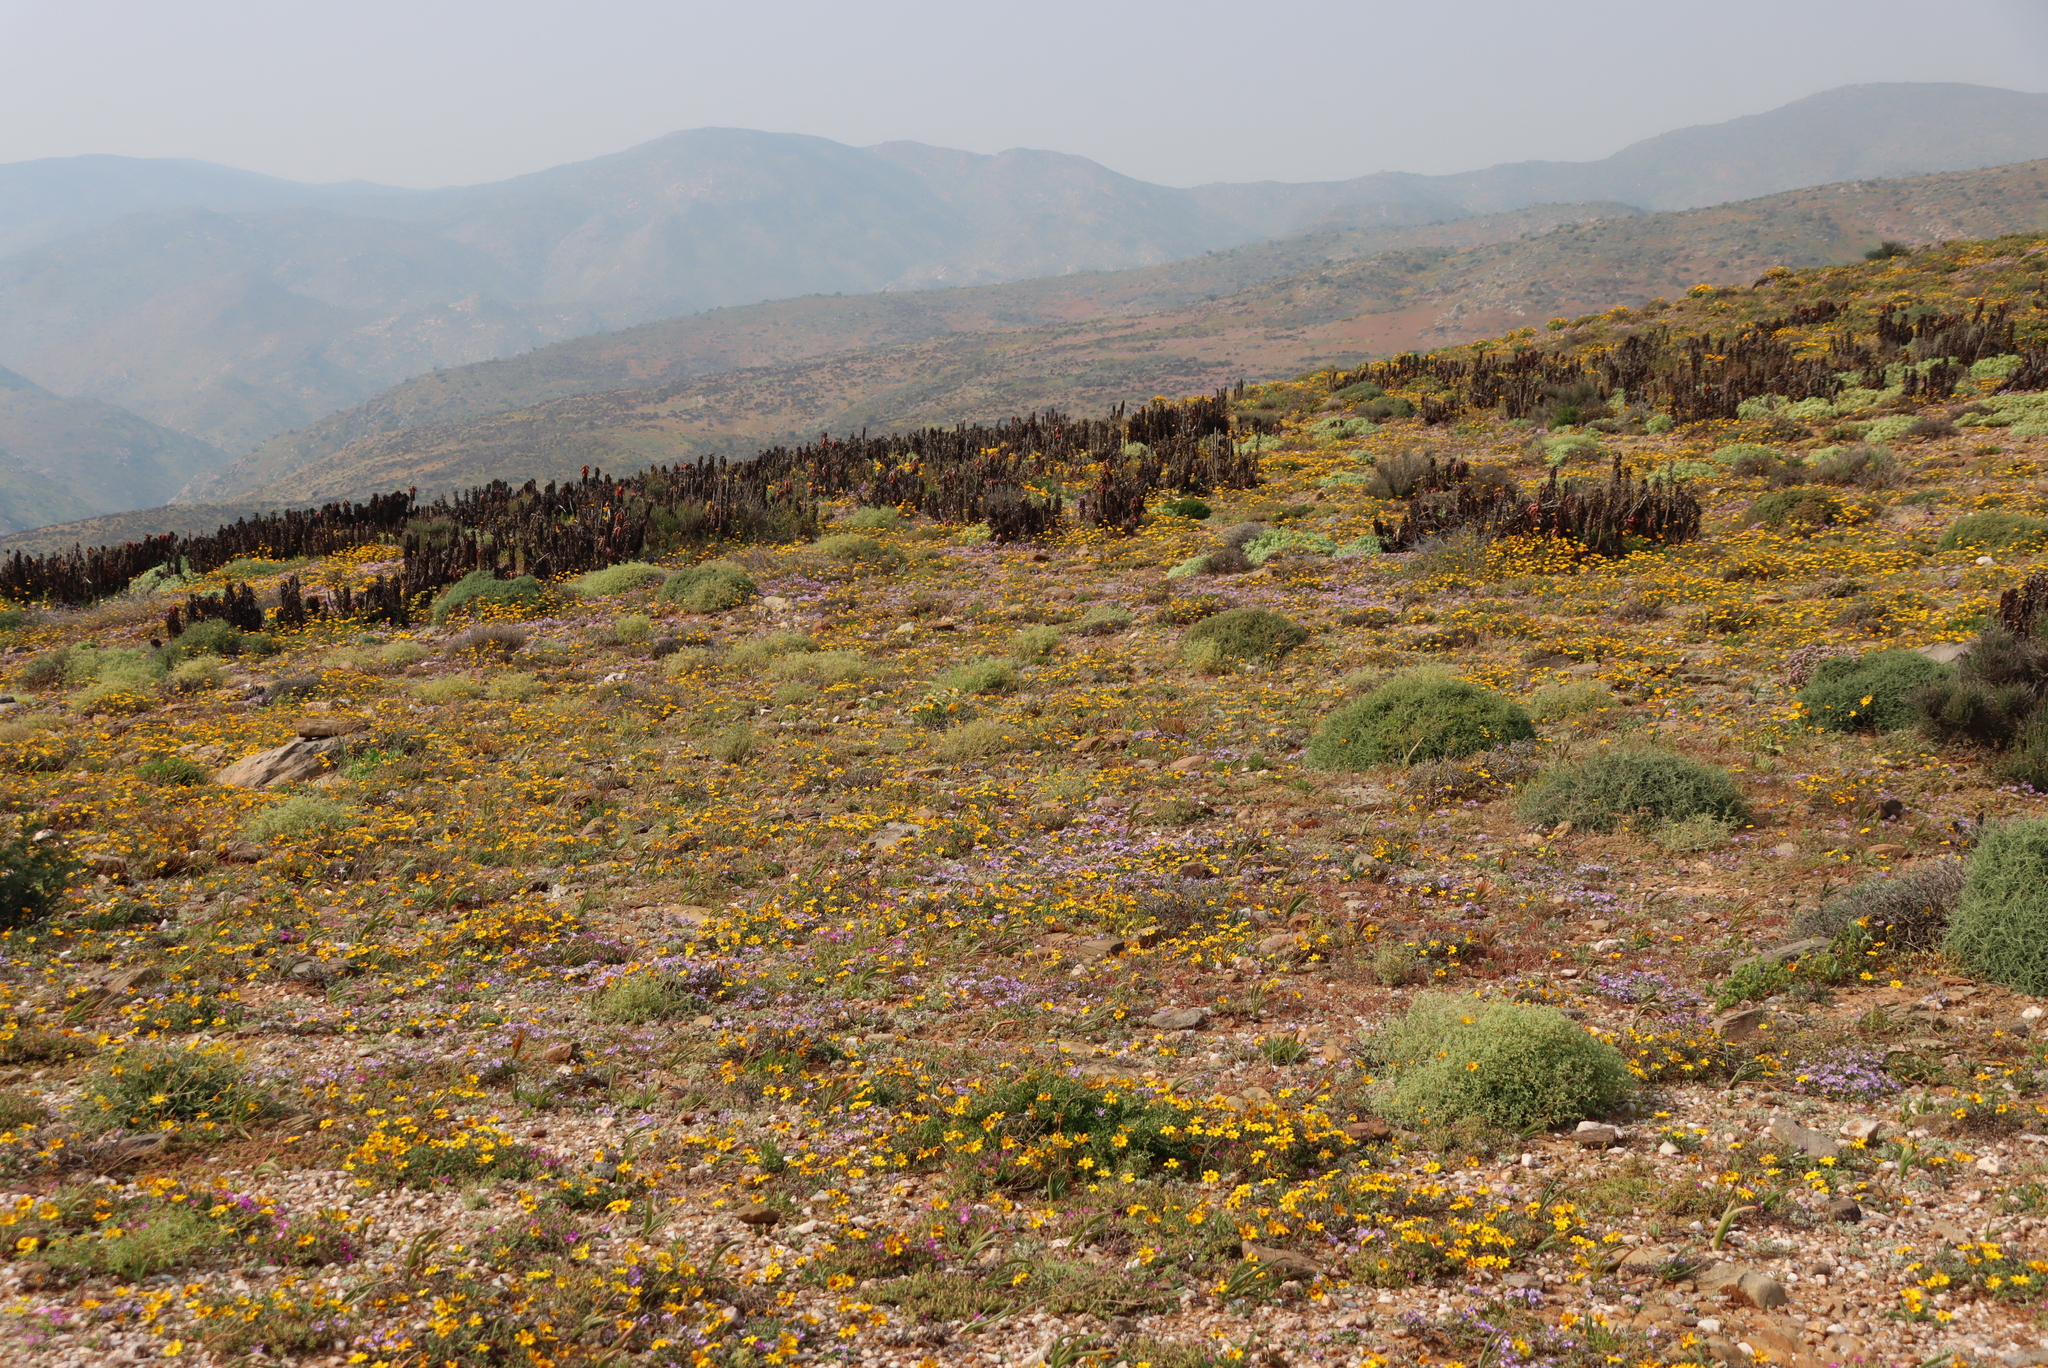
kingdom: Plantae
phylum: Tracheophyta
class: Liliopsida
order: Asparagales
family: Asphodelaceae
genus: Aloe
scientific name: Aloe pearsonii
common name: Pearson's aloe
